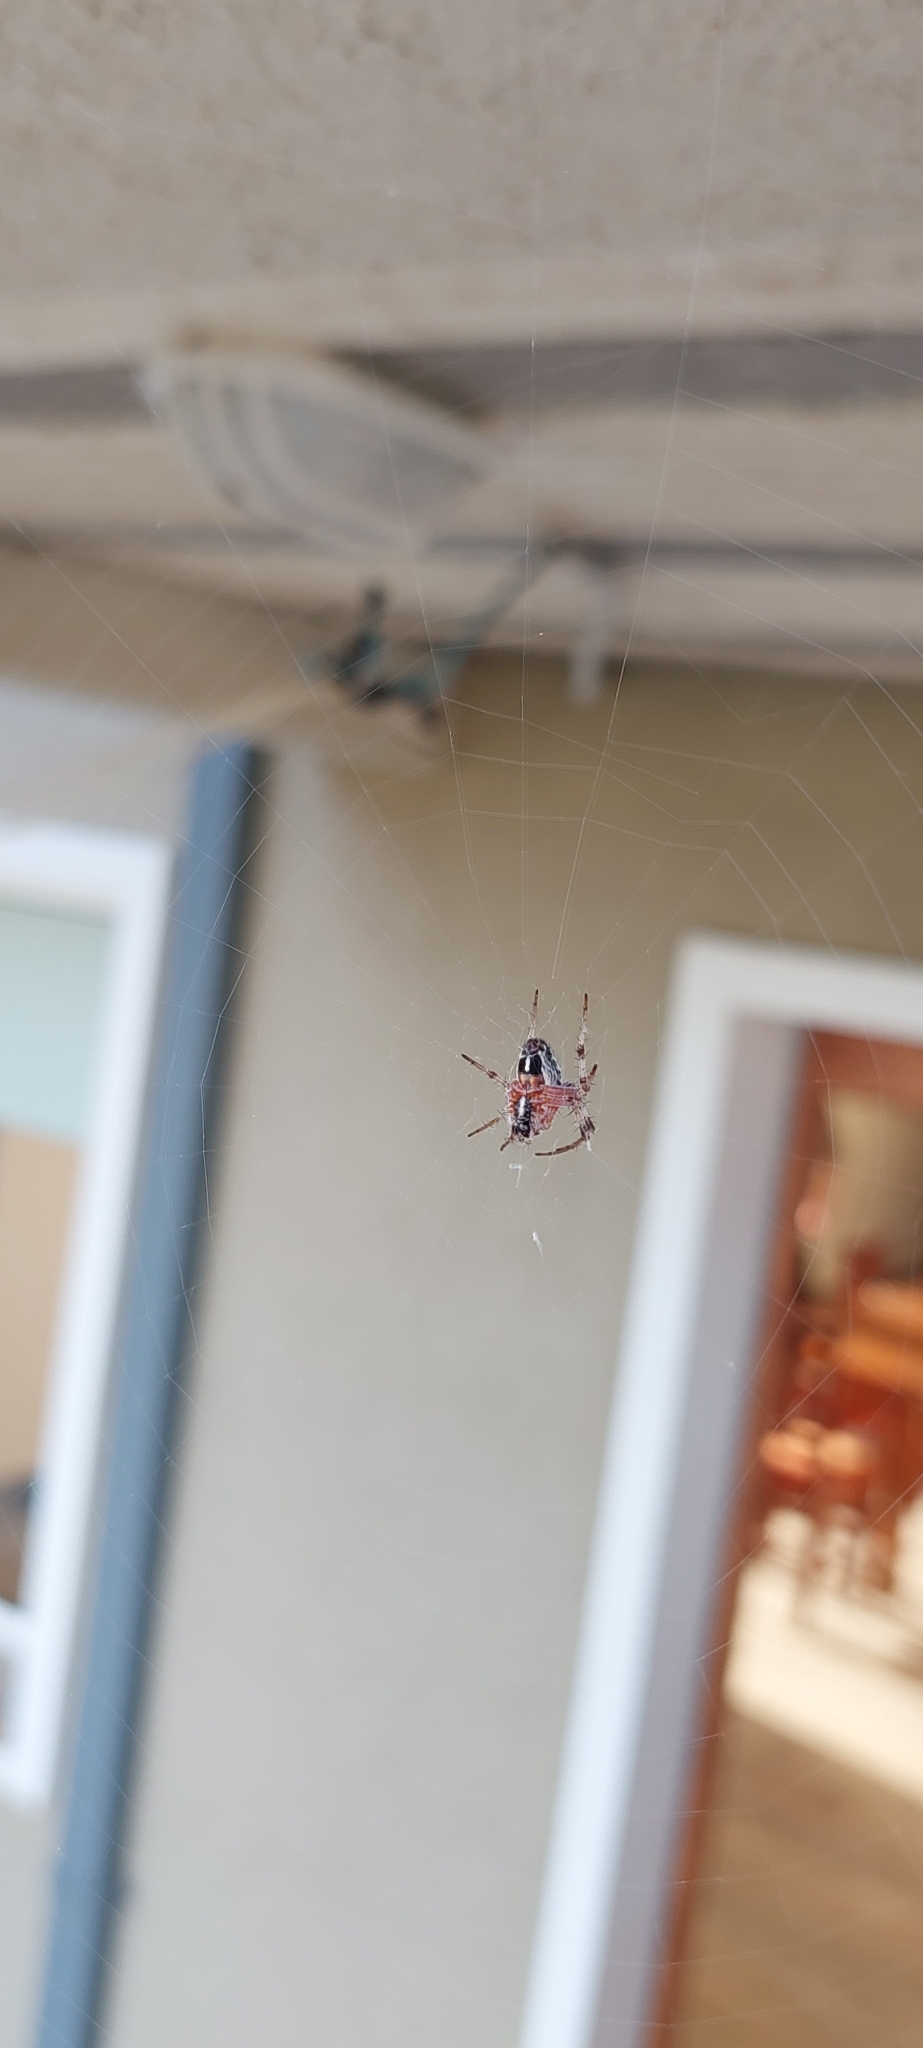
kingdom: Animalia
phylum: Arthropoda
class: Arachnida
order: Araneae
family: Araneidae
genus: Metepeira
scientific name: Metepeira
